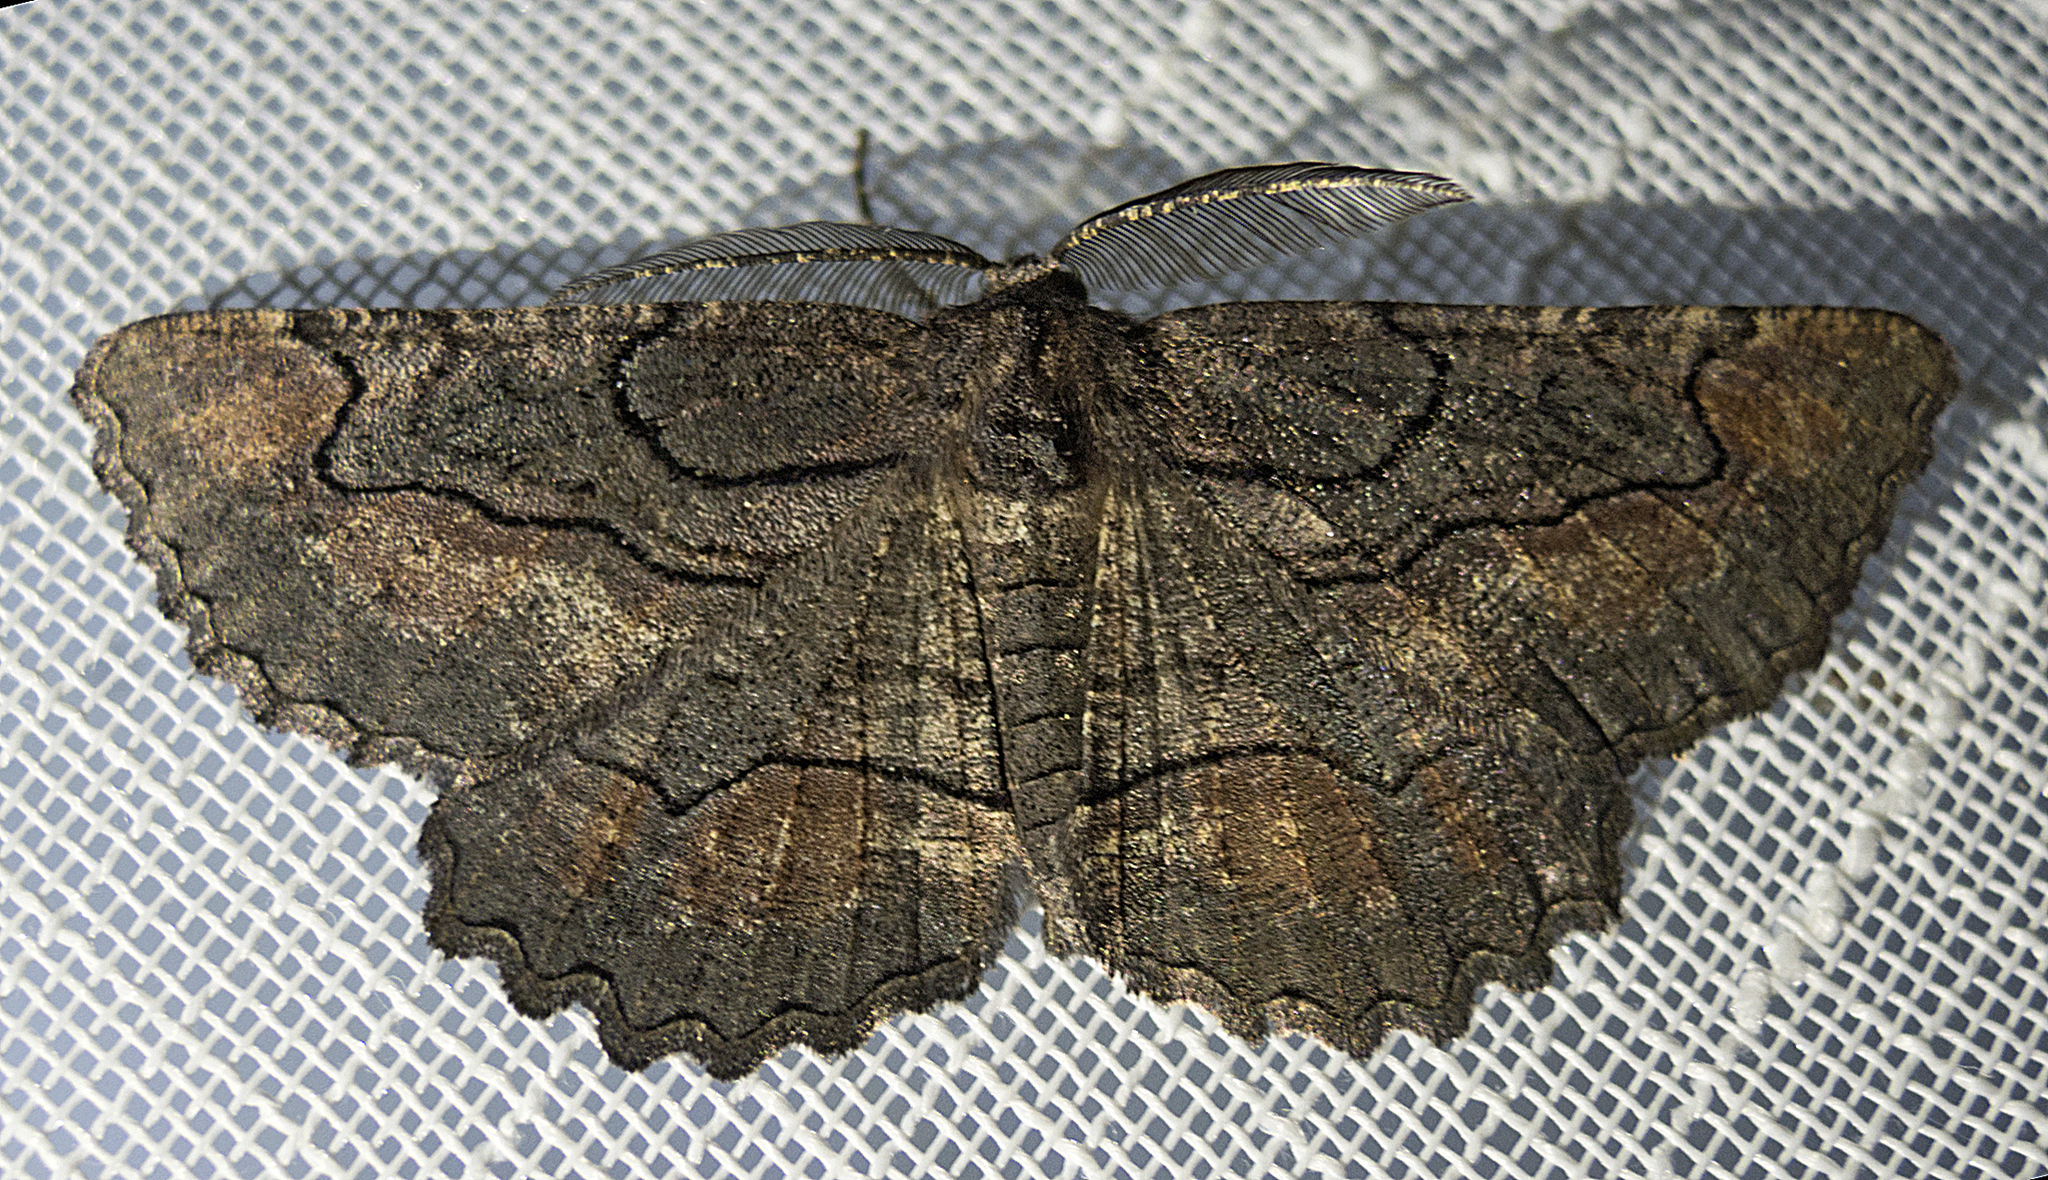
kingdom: Animalia
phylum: Arthropoda
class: Insecta
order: Lepidoptera
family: Geometridae
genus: Nychiodes
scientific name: Nychiodes waltheri
